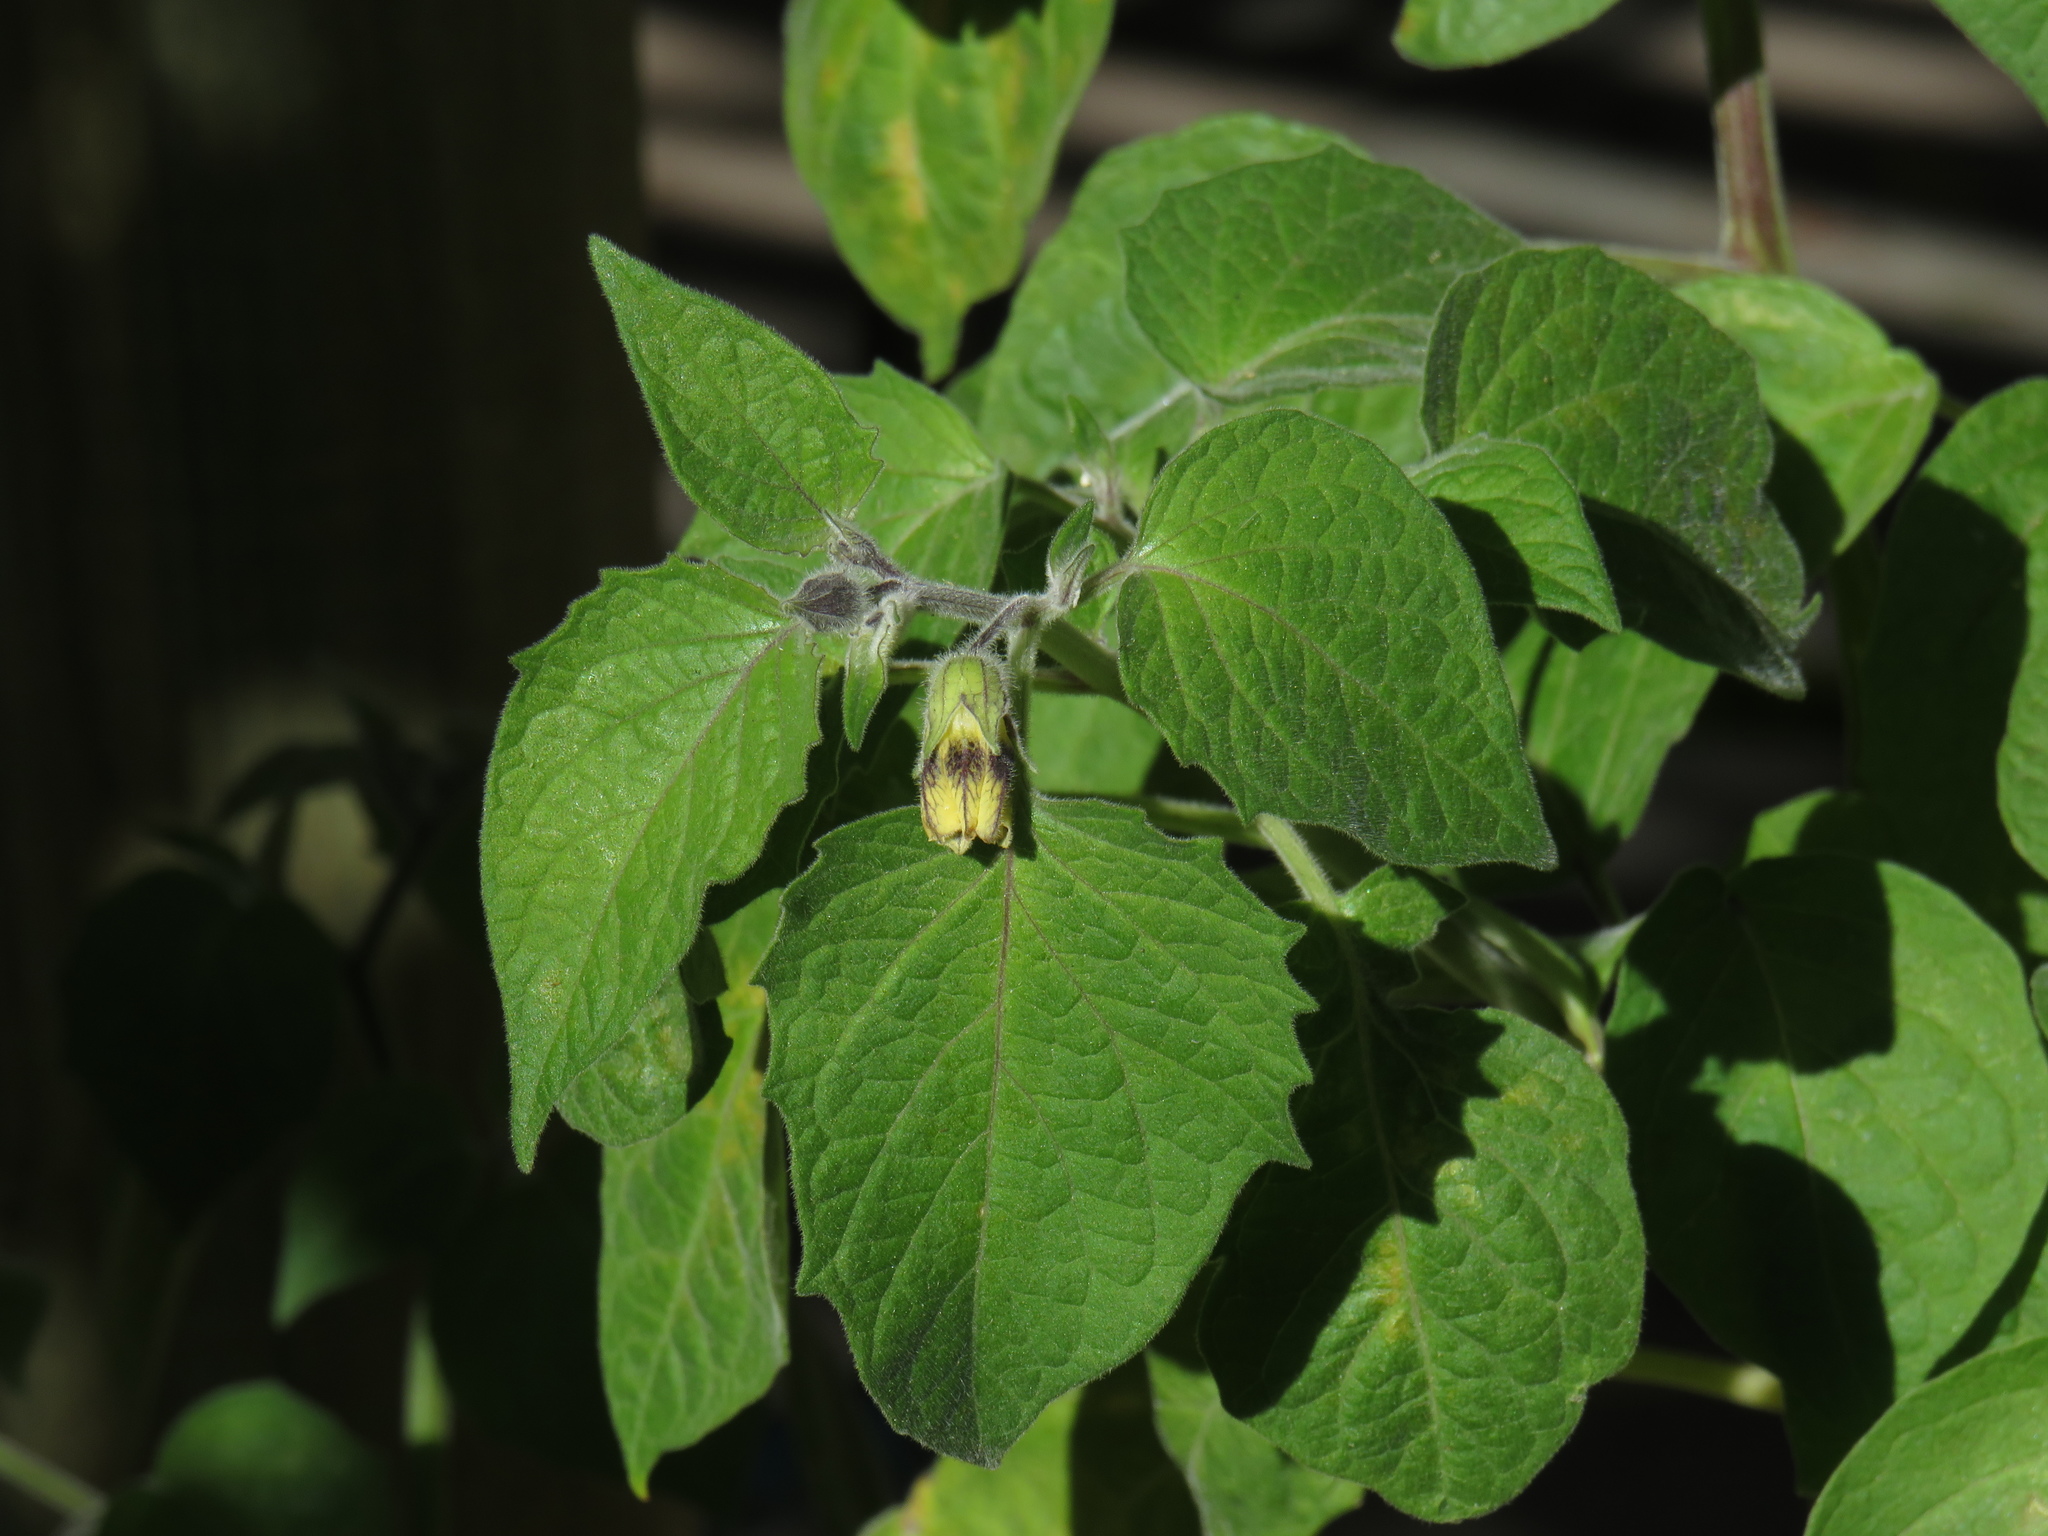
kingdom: Plantae
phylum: Tracheophyta
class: Magnoliopsida
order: Solanales
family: Solanaceae
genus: Physalis
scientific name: Physalis peruviana
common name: Cape-gooseberry
